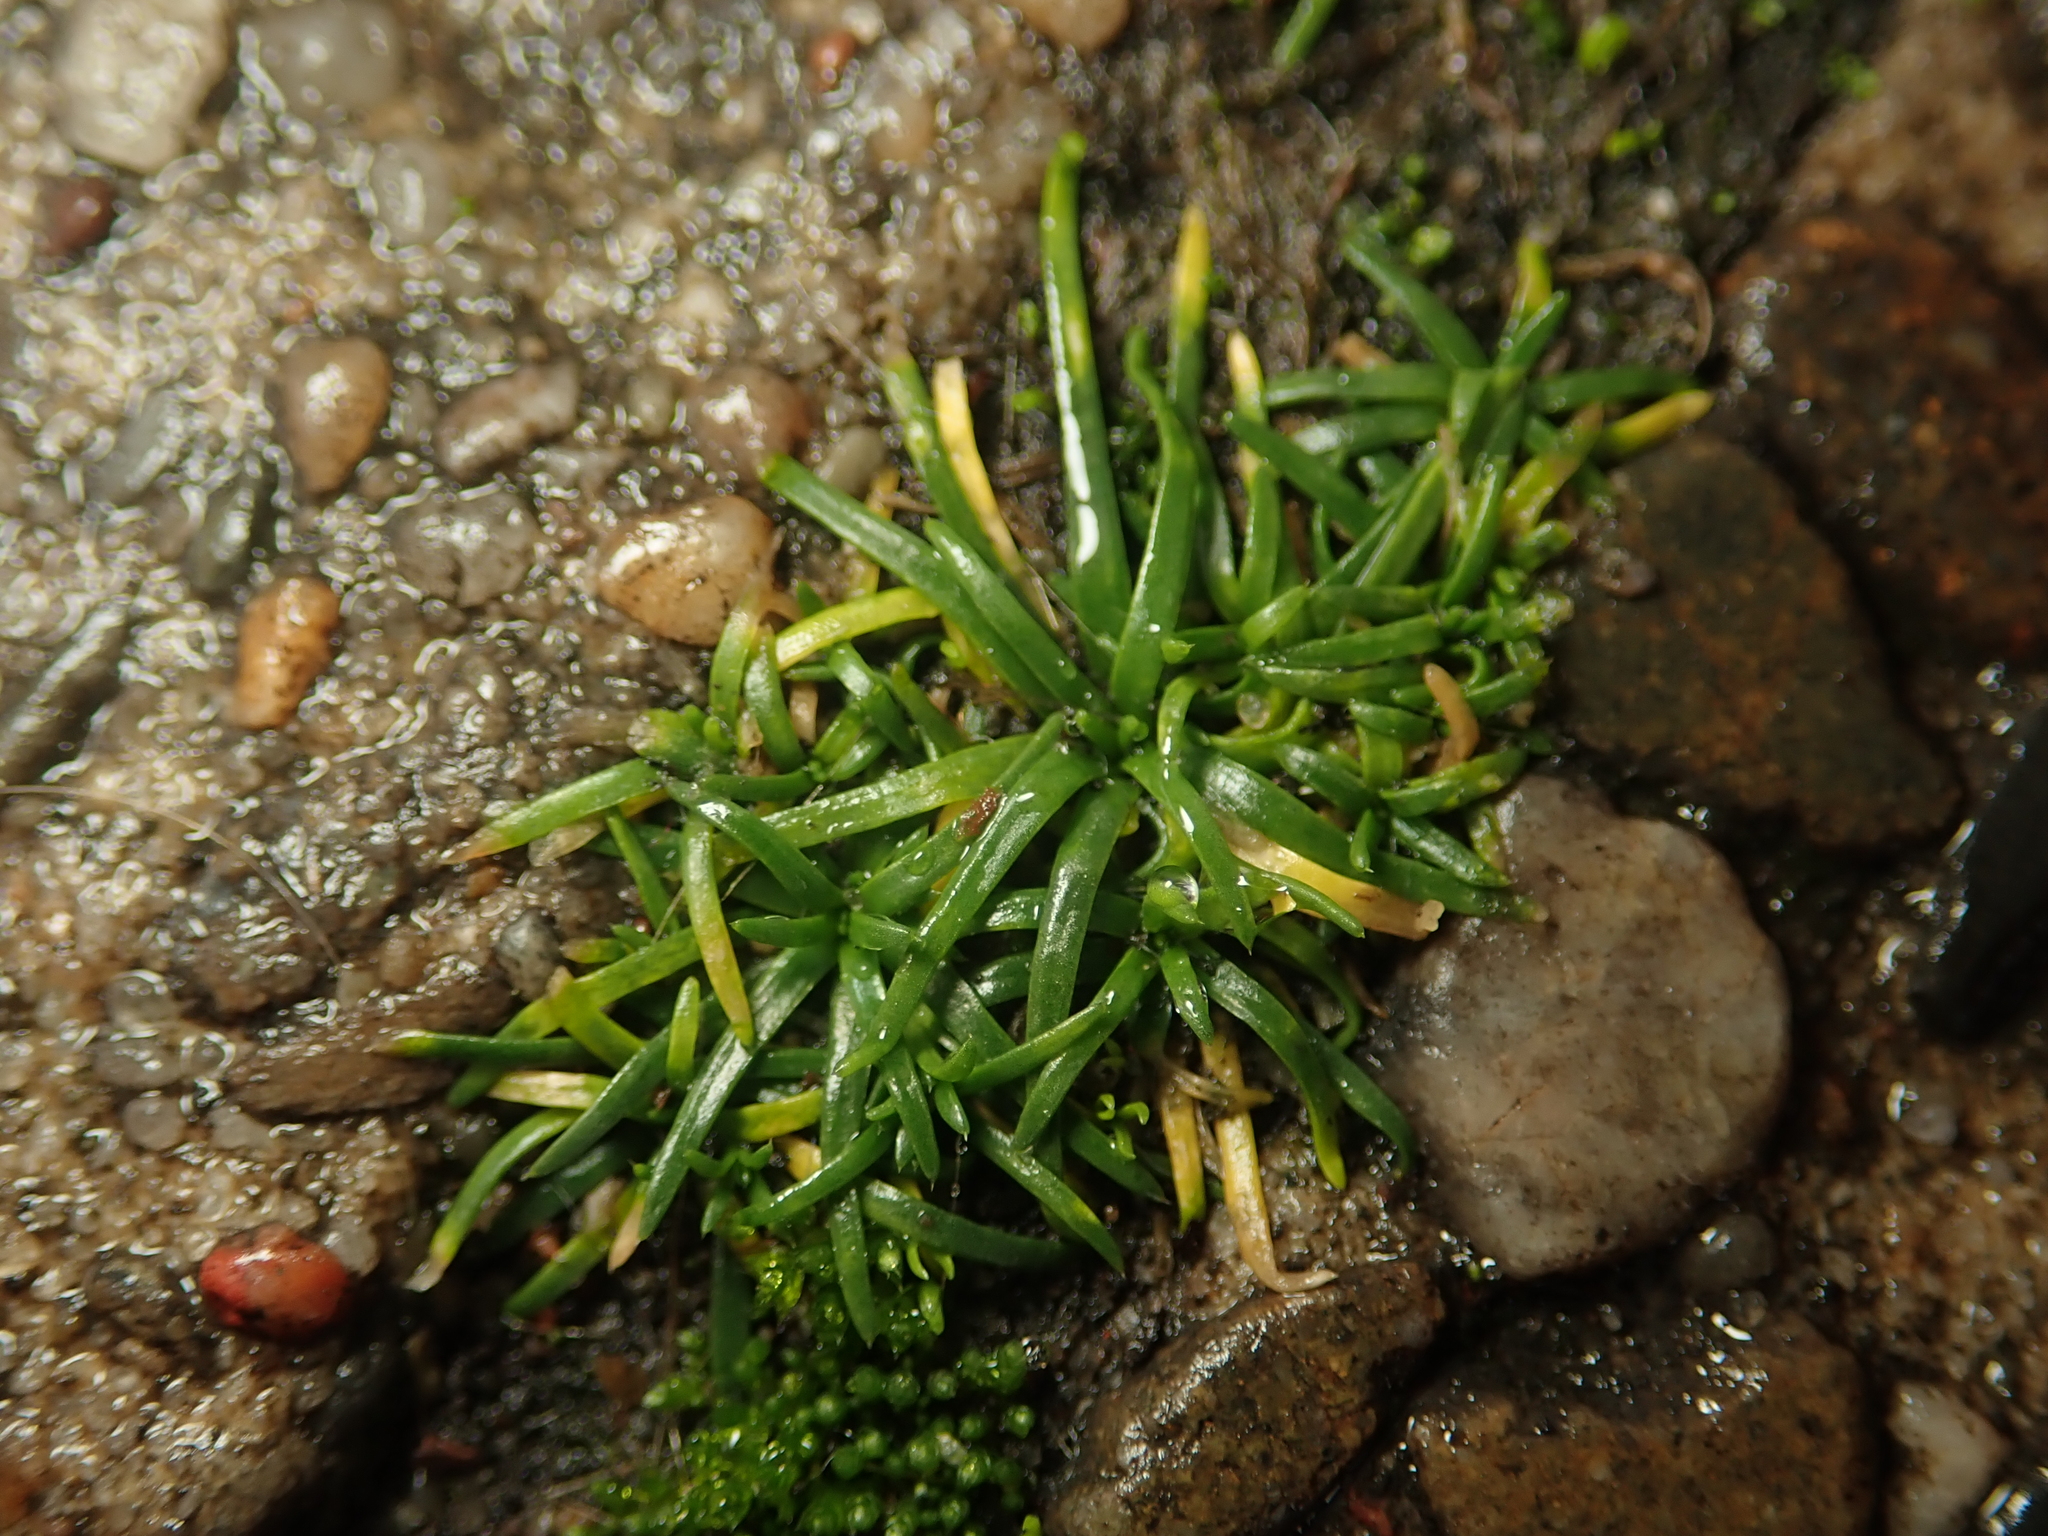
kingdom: Plantae
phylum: Tracheophyta
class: Magnoliopsida
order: Caryophyllales
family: Caryophyllaceae
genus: Sagina
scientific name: Sagina procumbens
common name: Procumbent pearlwort
